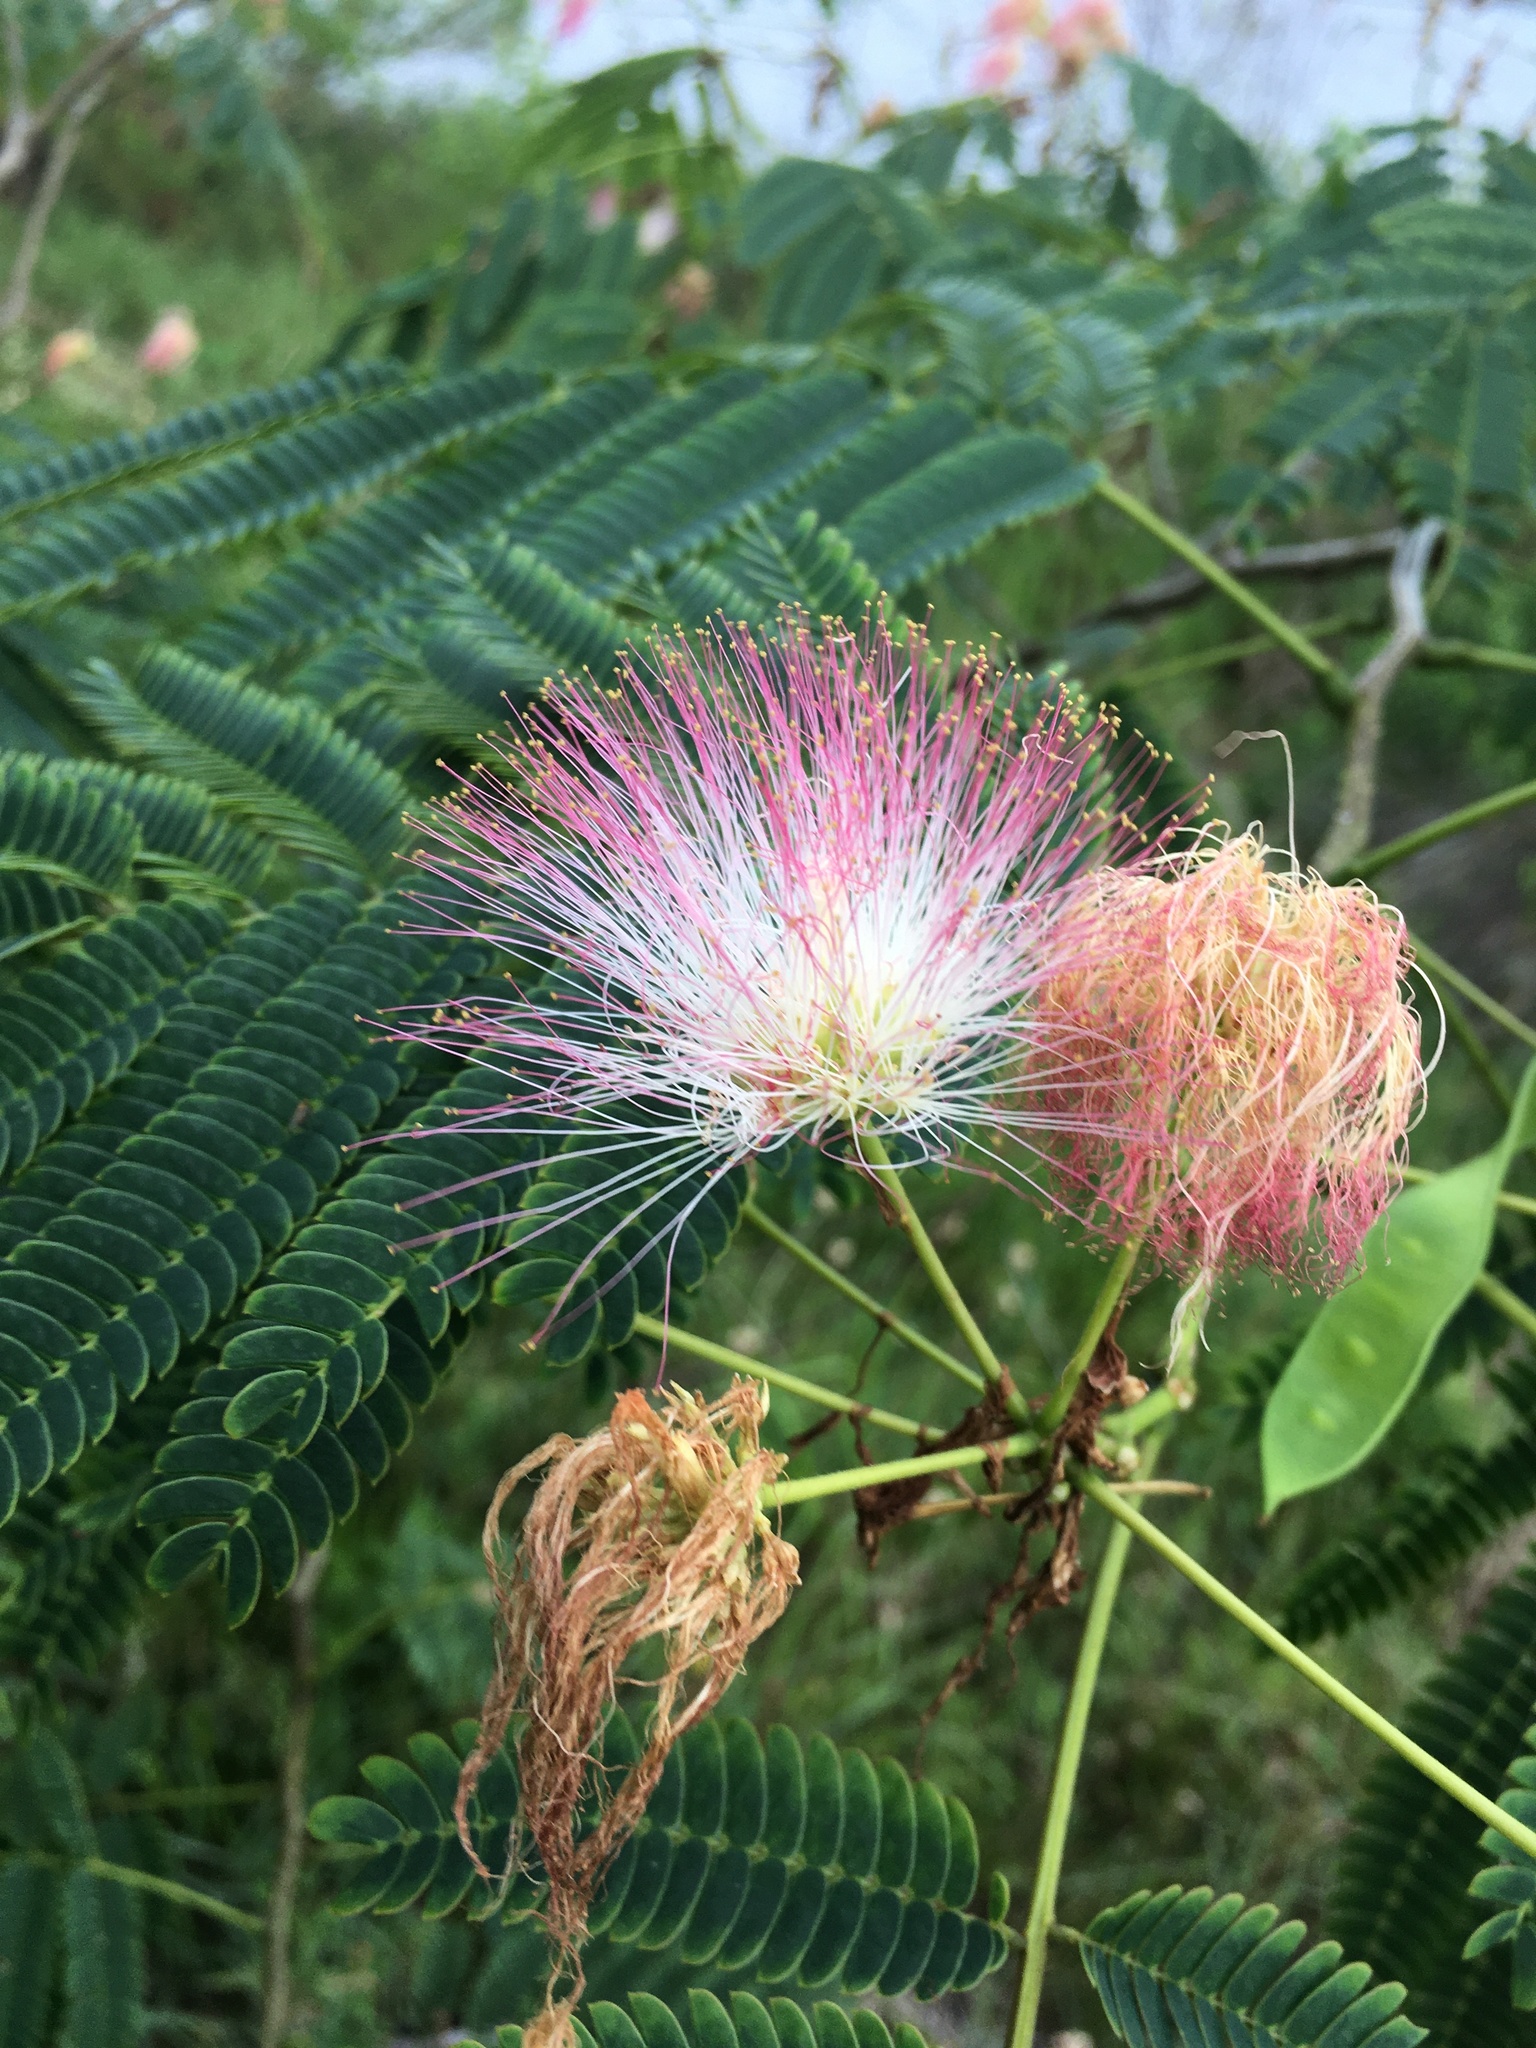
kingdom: Plantae
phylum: Tracheophyta
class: Magnoliopsida
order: Fabales
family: Fabaceae
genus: Albizia
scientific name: Albizia julibrissin
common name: Silktree
